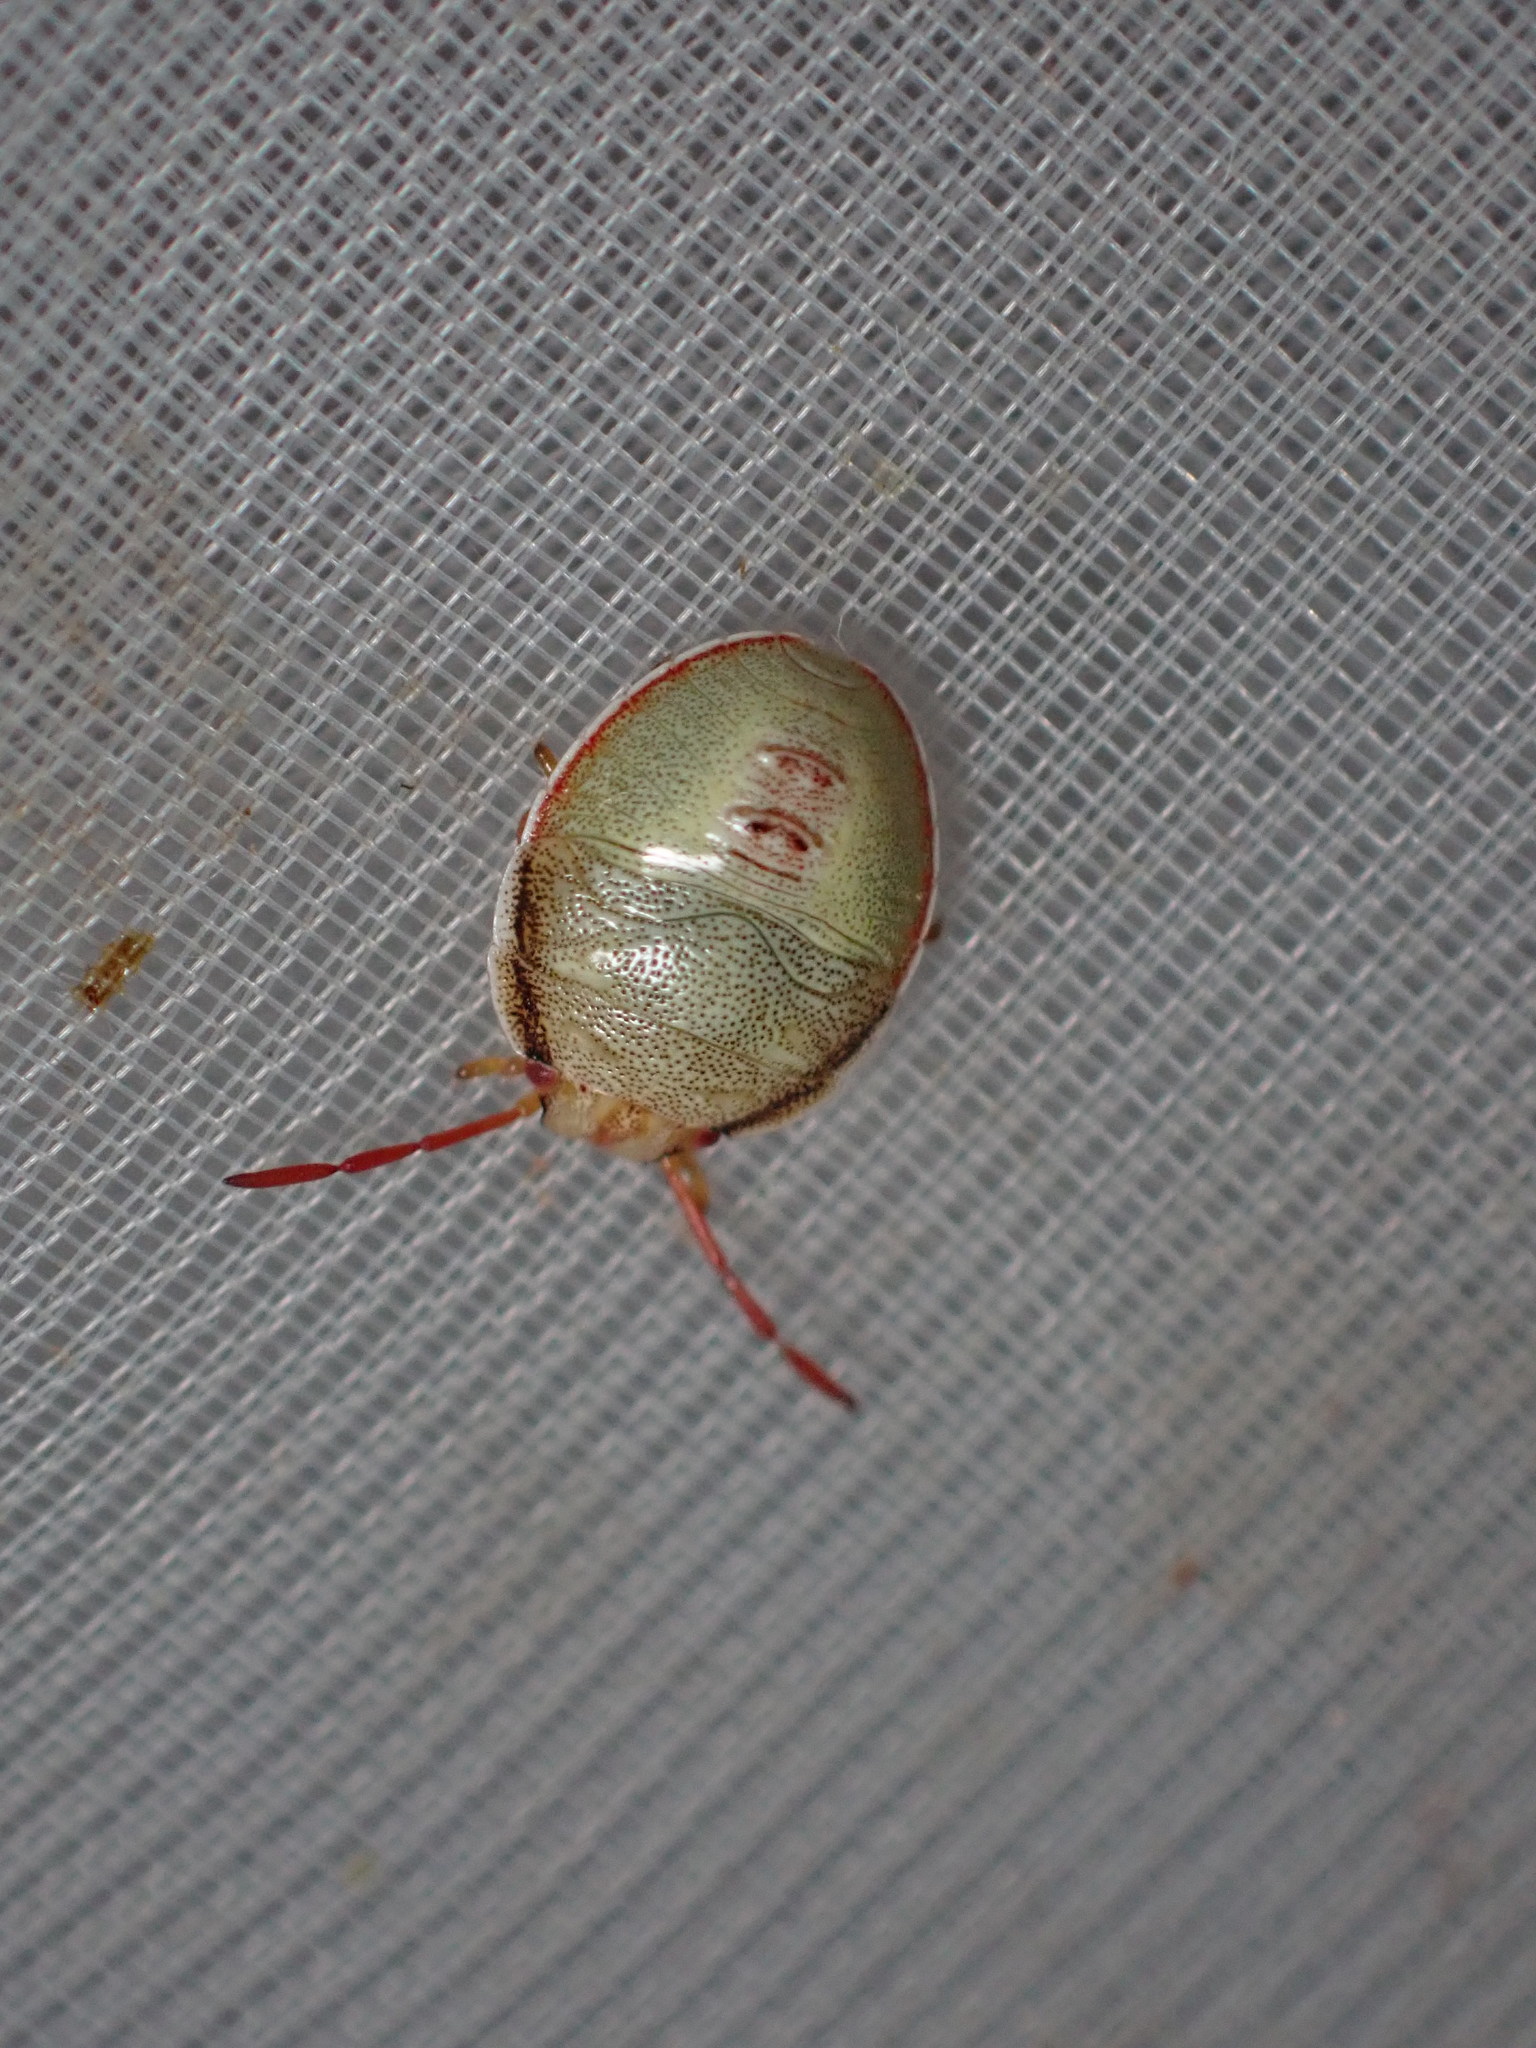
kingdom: Animalia
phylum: Arthropoda
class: Insecta
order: Hemiptera
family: Pentatomidae
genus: Piezodorus
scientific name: Piezodorus lituratus
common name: Stink bug
